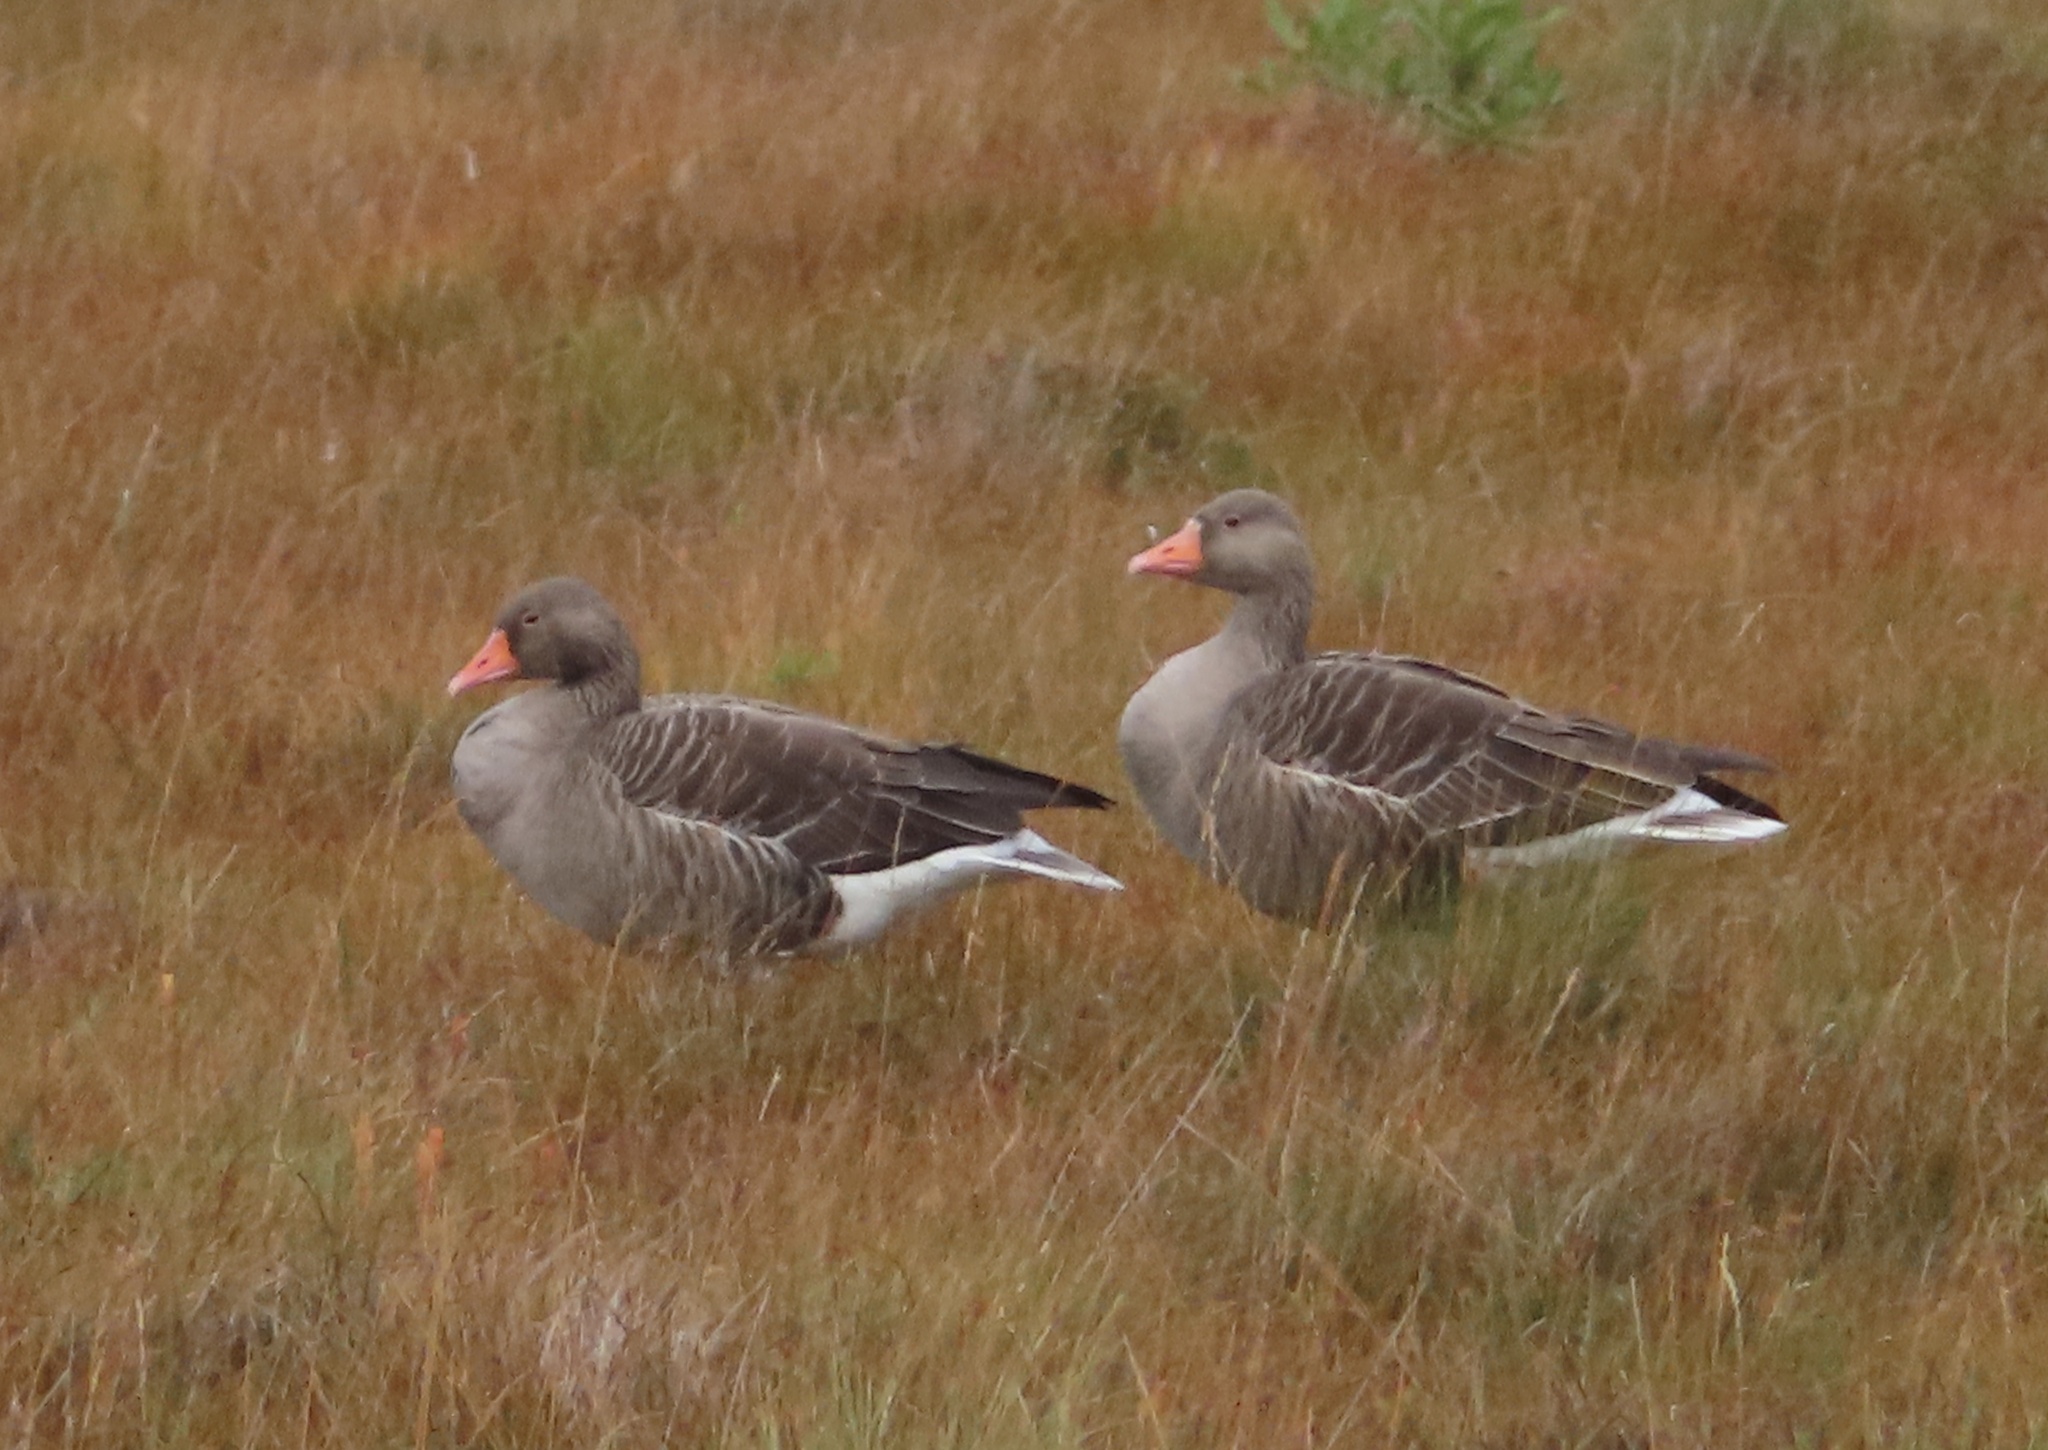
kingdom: Animalia
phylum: Chordata
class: Aves
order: Anseriformes
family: Anatidae
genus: Anser
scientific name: Anser anser
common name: Greylag goose
